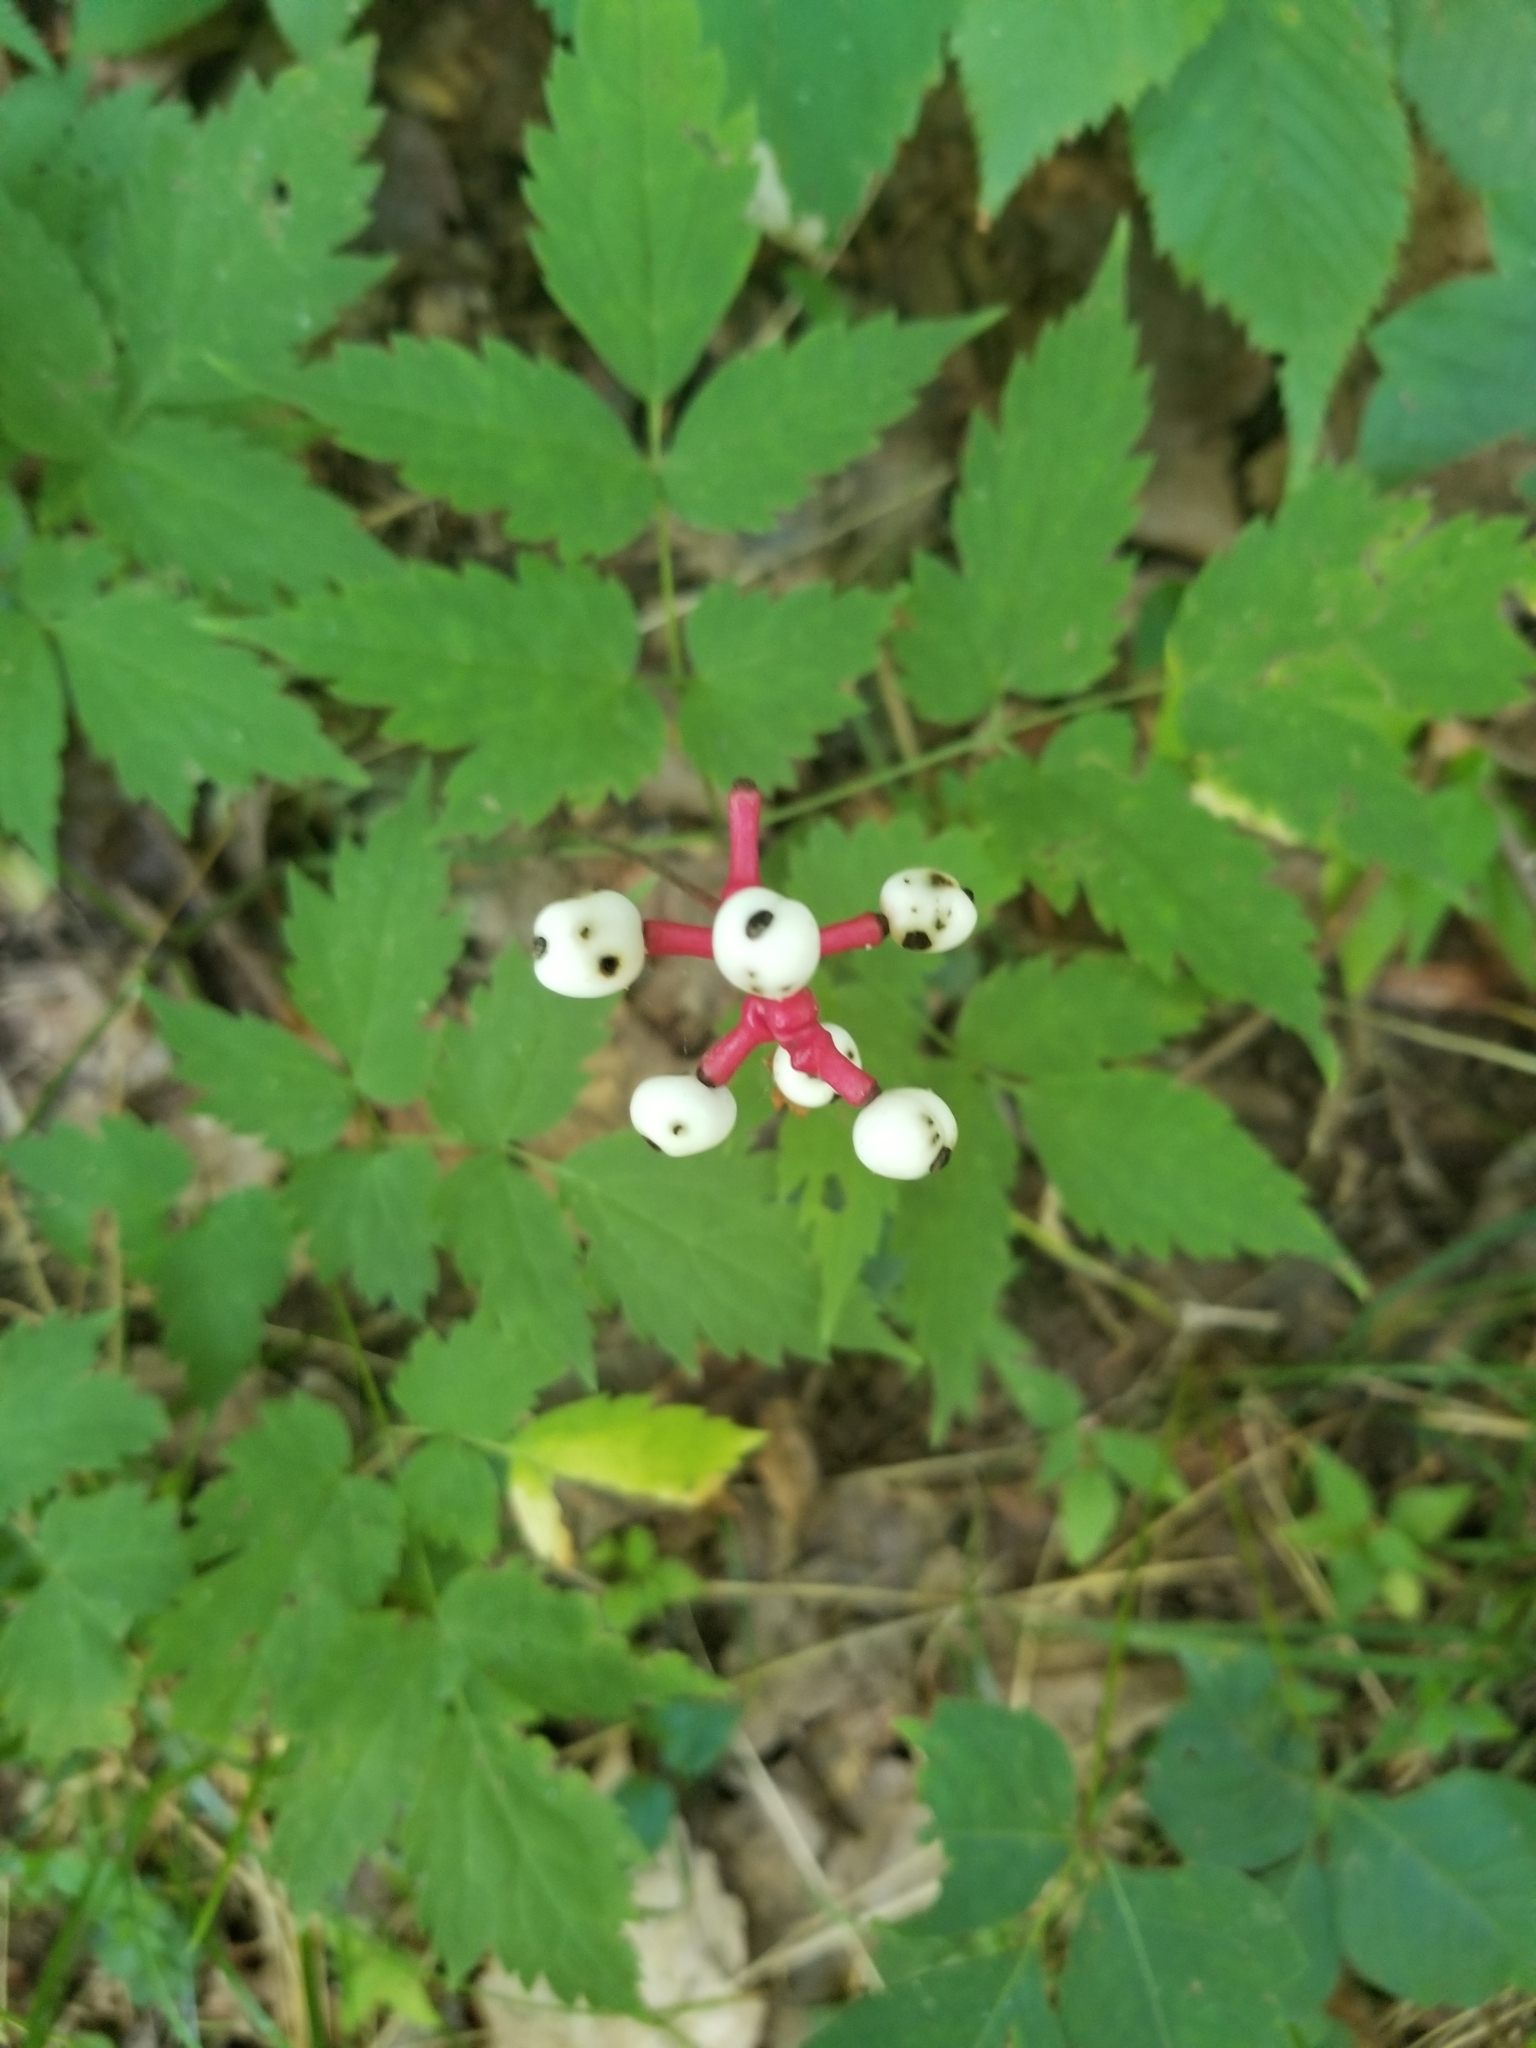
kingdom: Plantae
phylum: Tracheophyta
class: Magnoliopsida
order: Ranunculales
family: Ranunculaceae
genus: Actaea
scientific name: Actaea pachypoda
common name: Doll's-eyes
